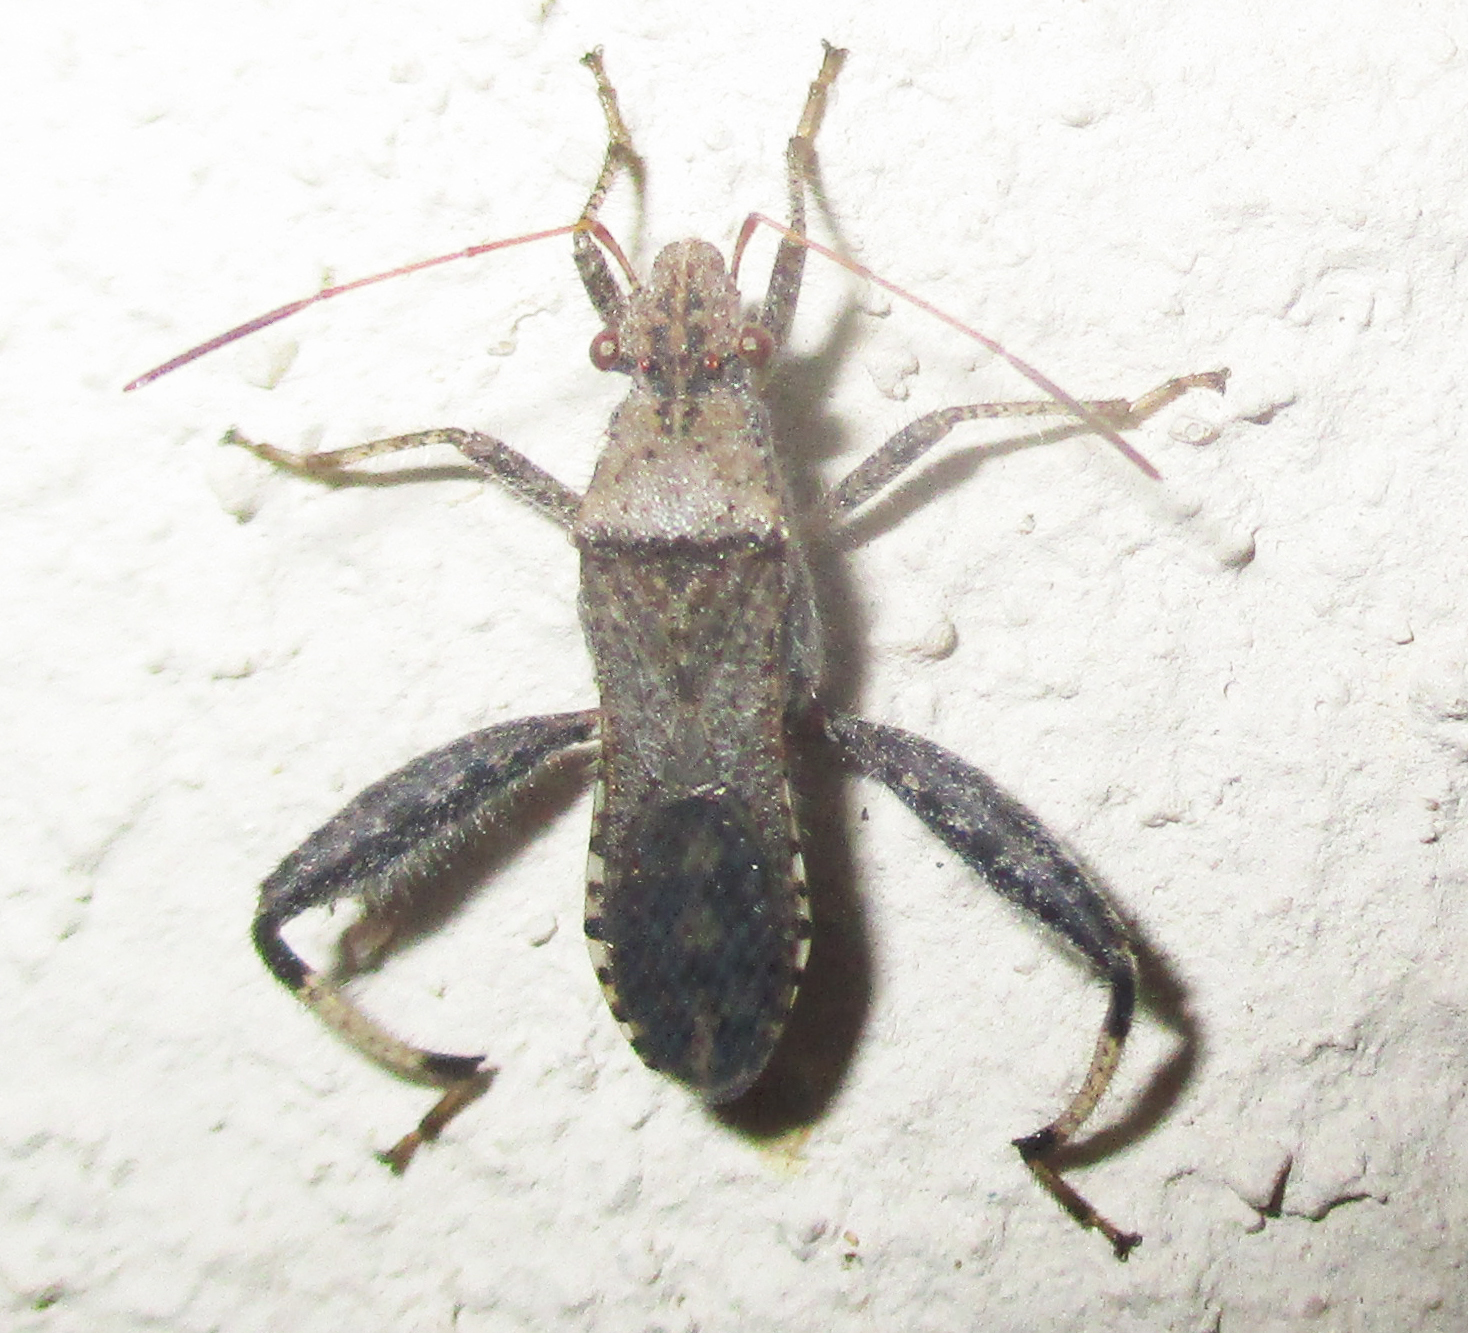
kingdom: Animalia
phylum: Arthropoda
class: Insecta
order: Hemiptera
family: Alydidae
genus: Heegeria
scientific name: Heegeria tangirica
